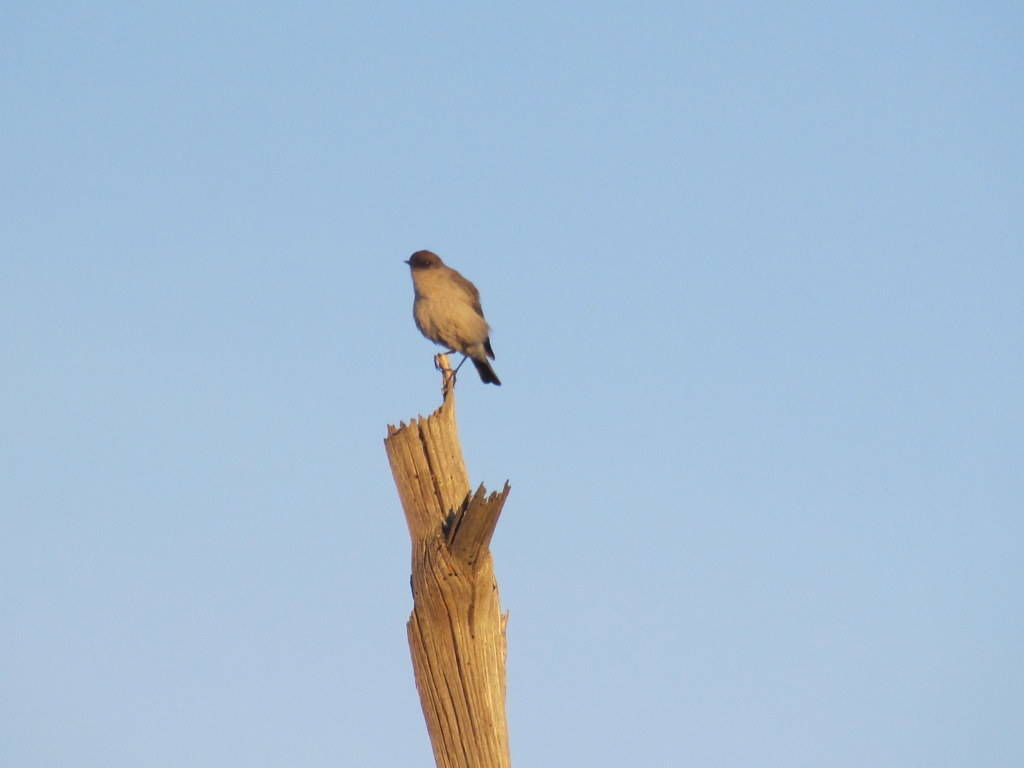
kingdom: Animalia
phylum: Chordata
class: Aves
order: Passeriformes
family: Tyrannidae
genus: Muscisaxicola
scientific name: Muscisaxicola maclovianus
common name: Dark-faced ground tyrant
